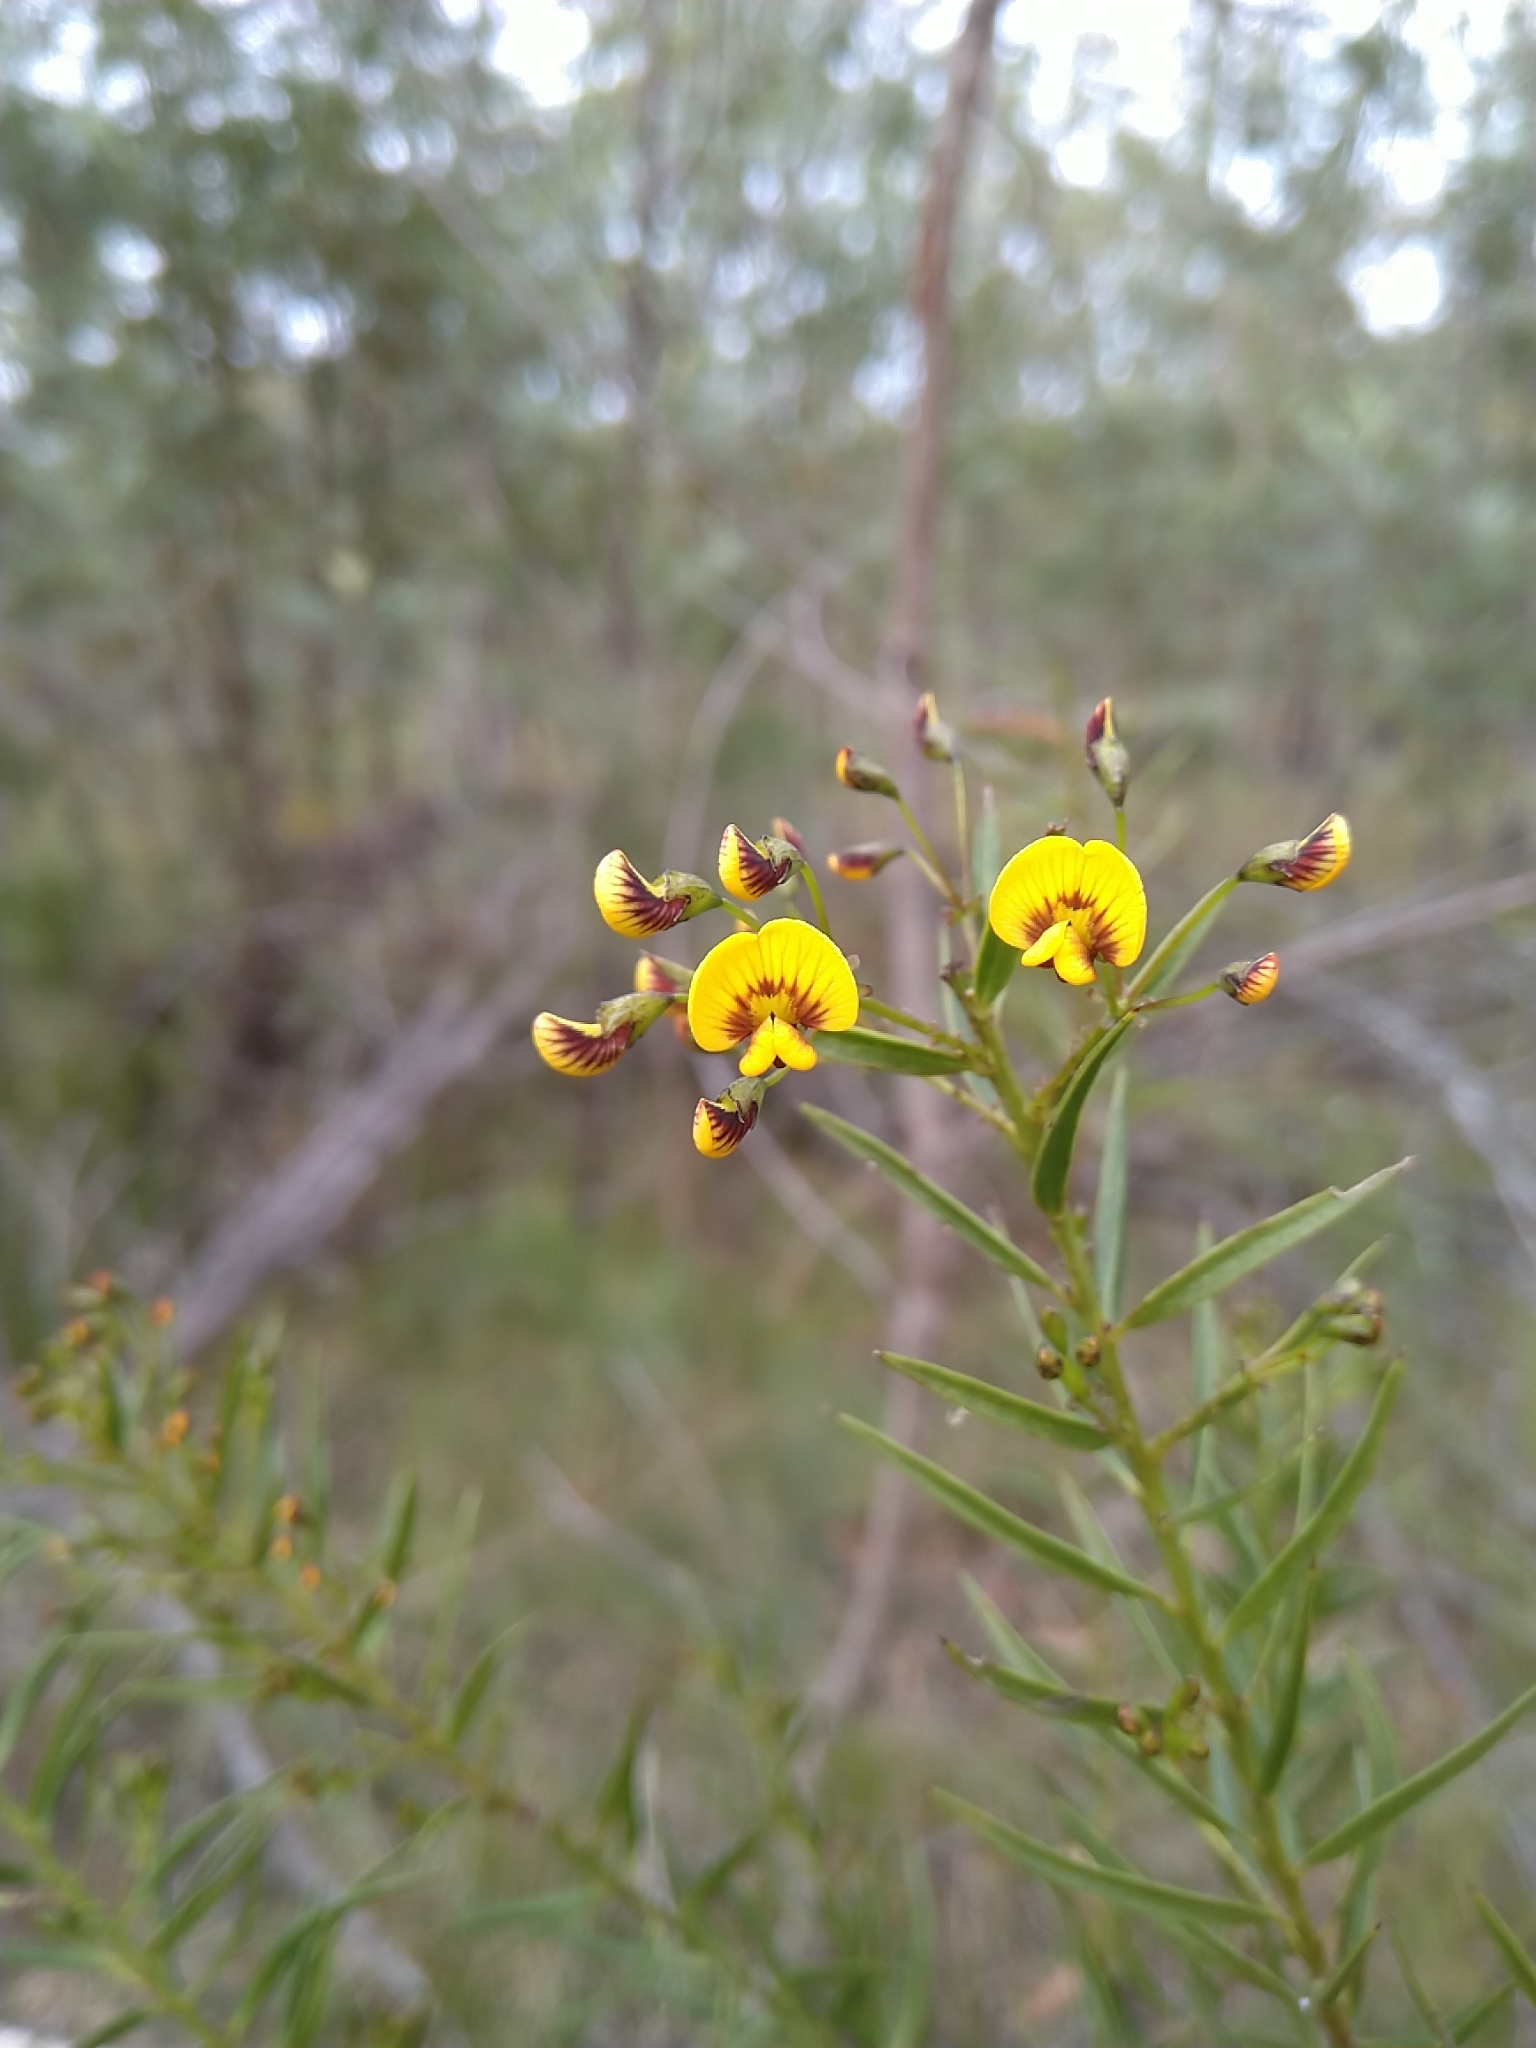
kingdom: Plantae
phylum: Tracheophyta
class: Magnoliopsida
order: Fabales
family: Fabaceae
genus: Daviesia
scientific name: Daviesia umbellulata
